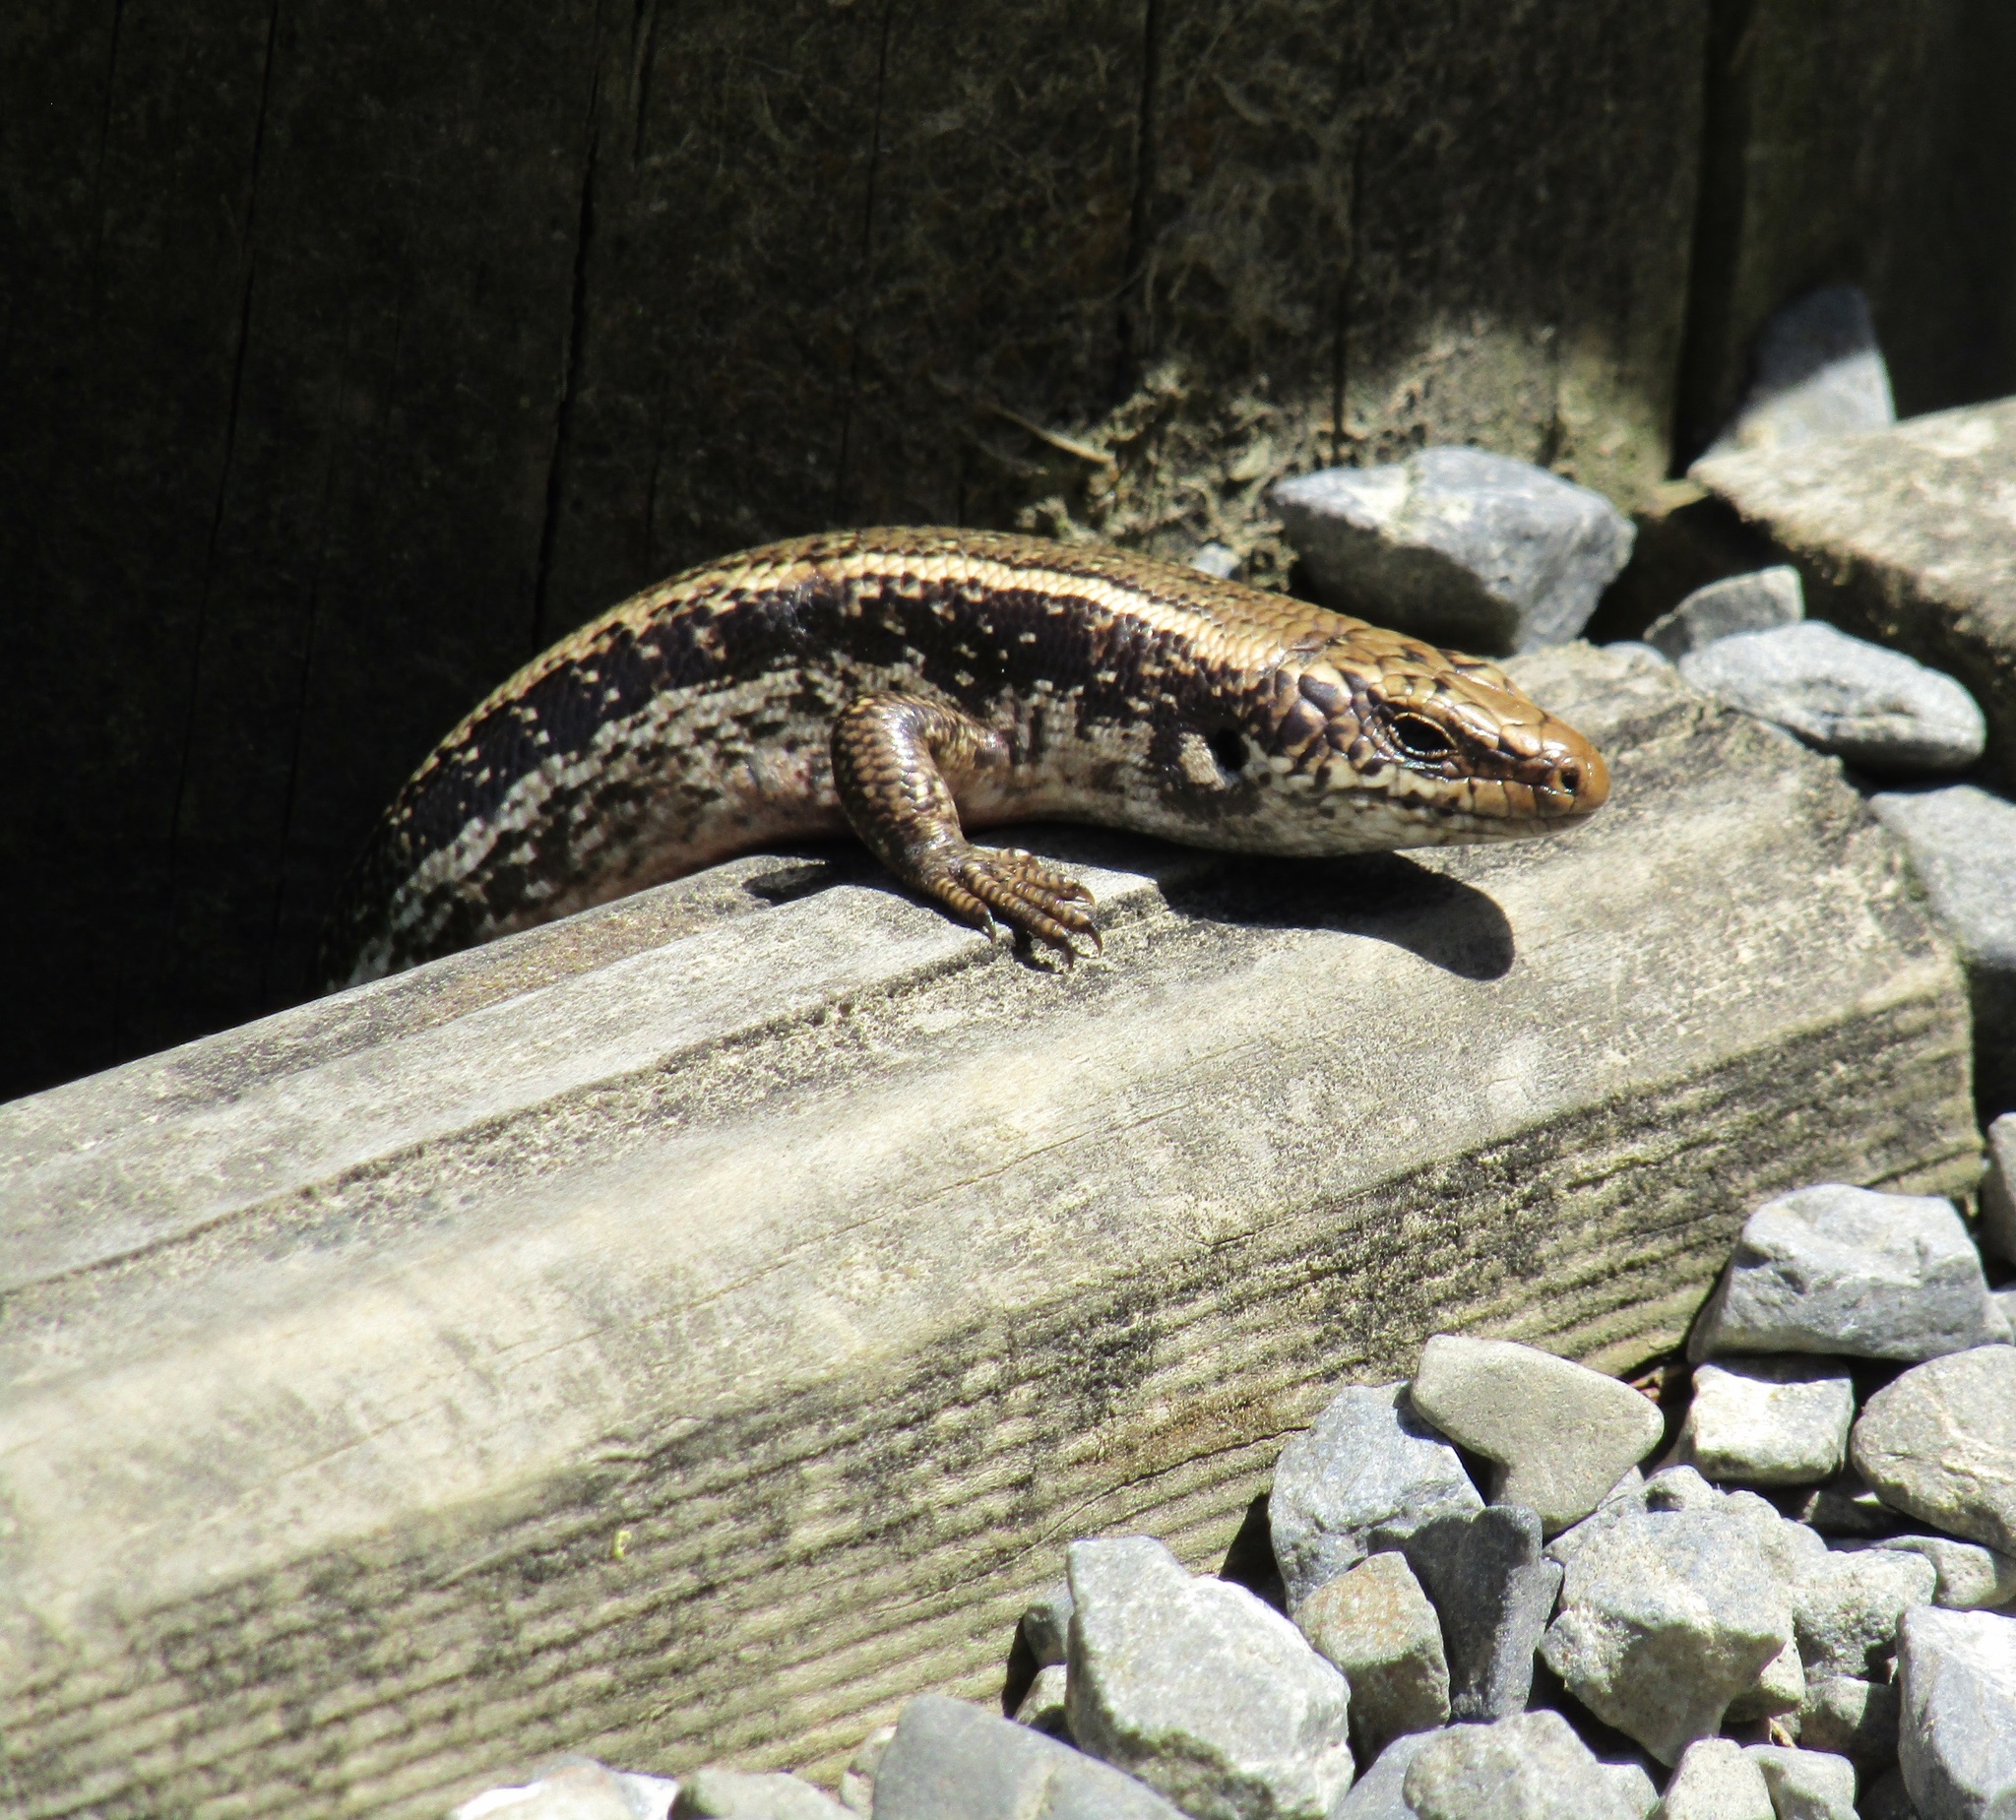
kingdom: Animalia
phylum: Chordata
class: Squamata
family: Scincidae
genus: Oligosoma
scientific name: Oligosoma kokowai
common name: Northern spotted skink
